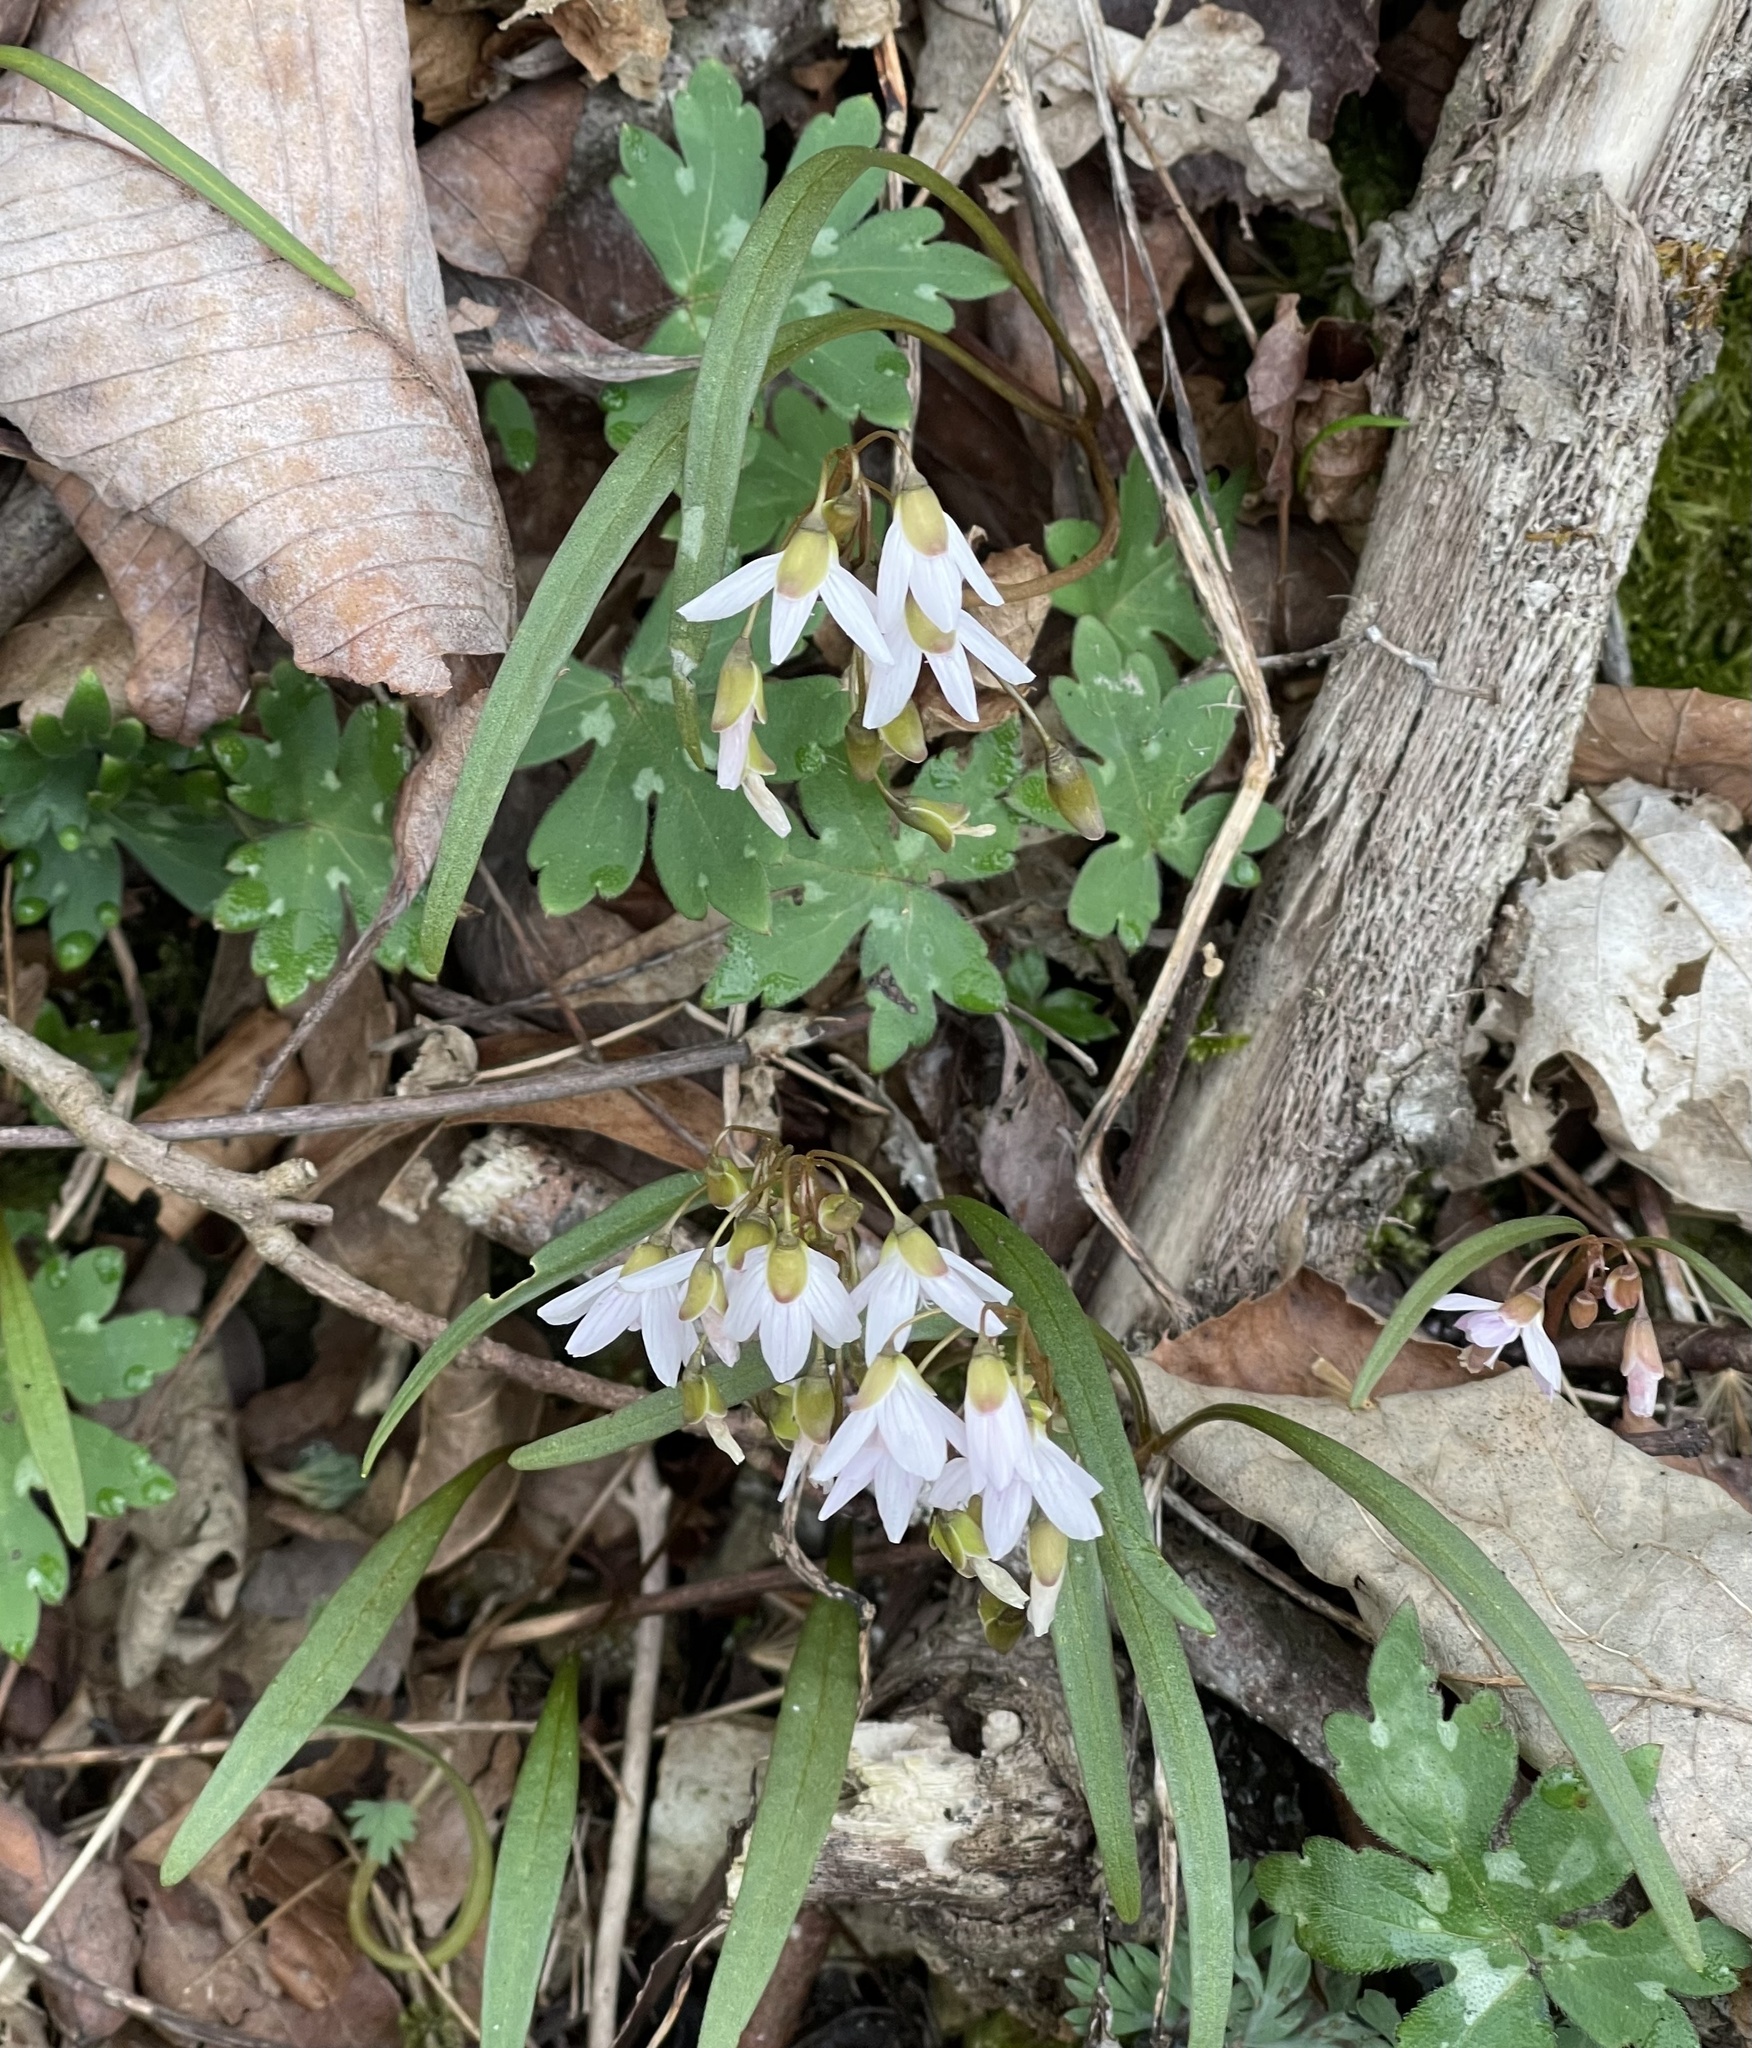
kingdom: Plantae
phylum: Tracheophyta
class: Magnoliopsida
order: Caryophyllales
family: Montiaceae
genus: Claytonia
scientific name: Claytonia virginica
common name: Virginia springbeauty
